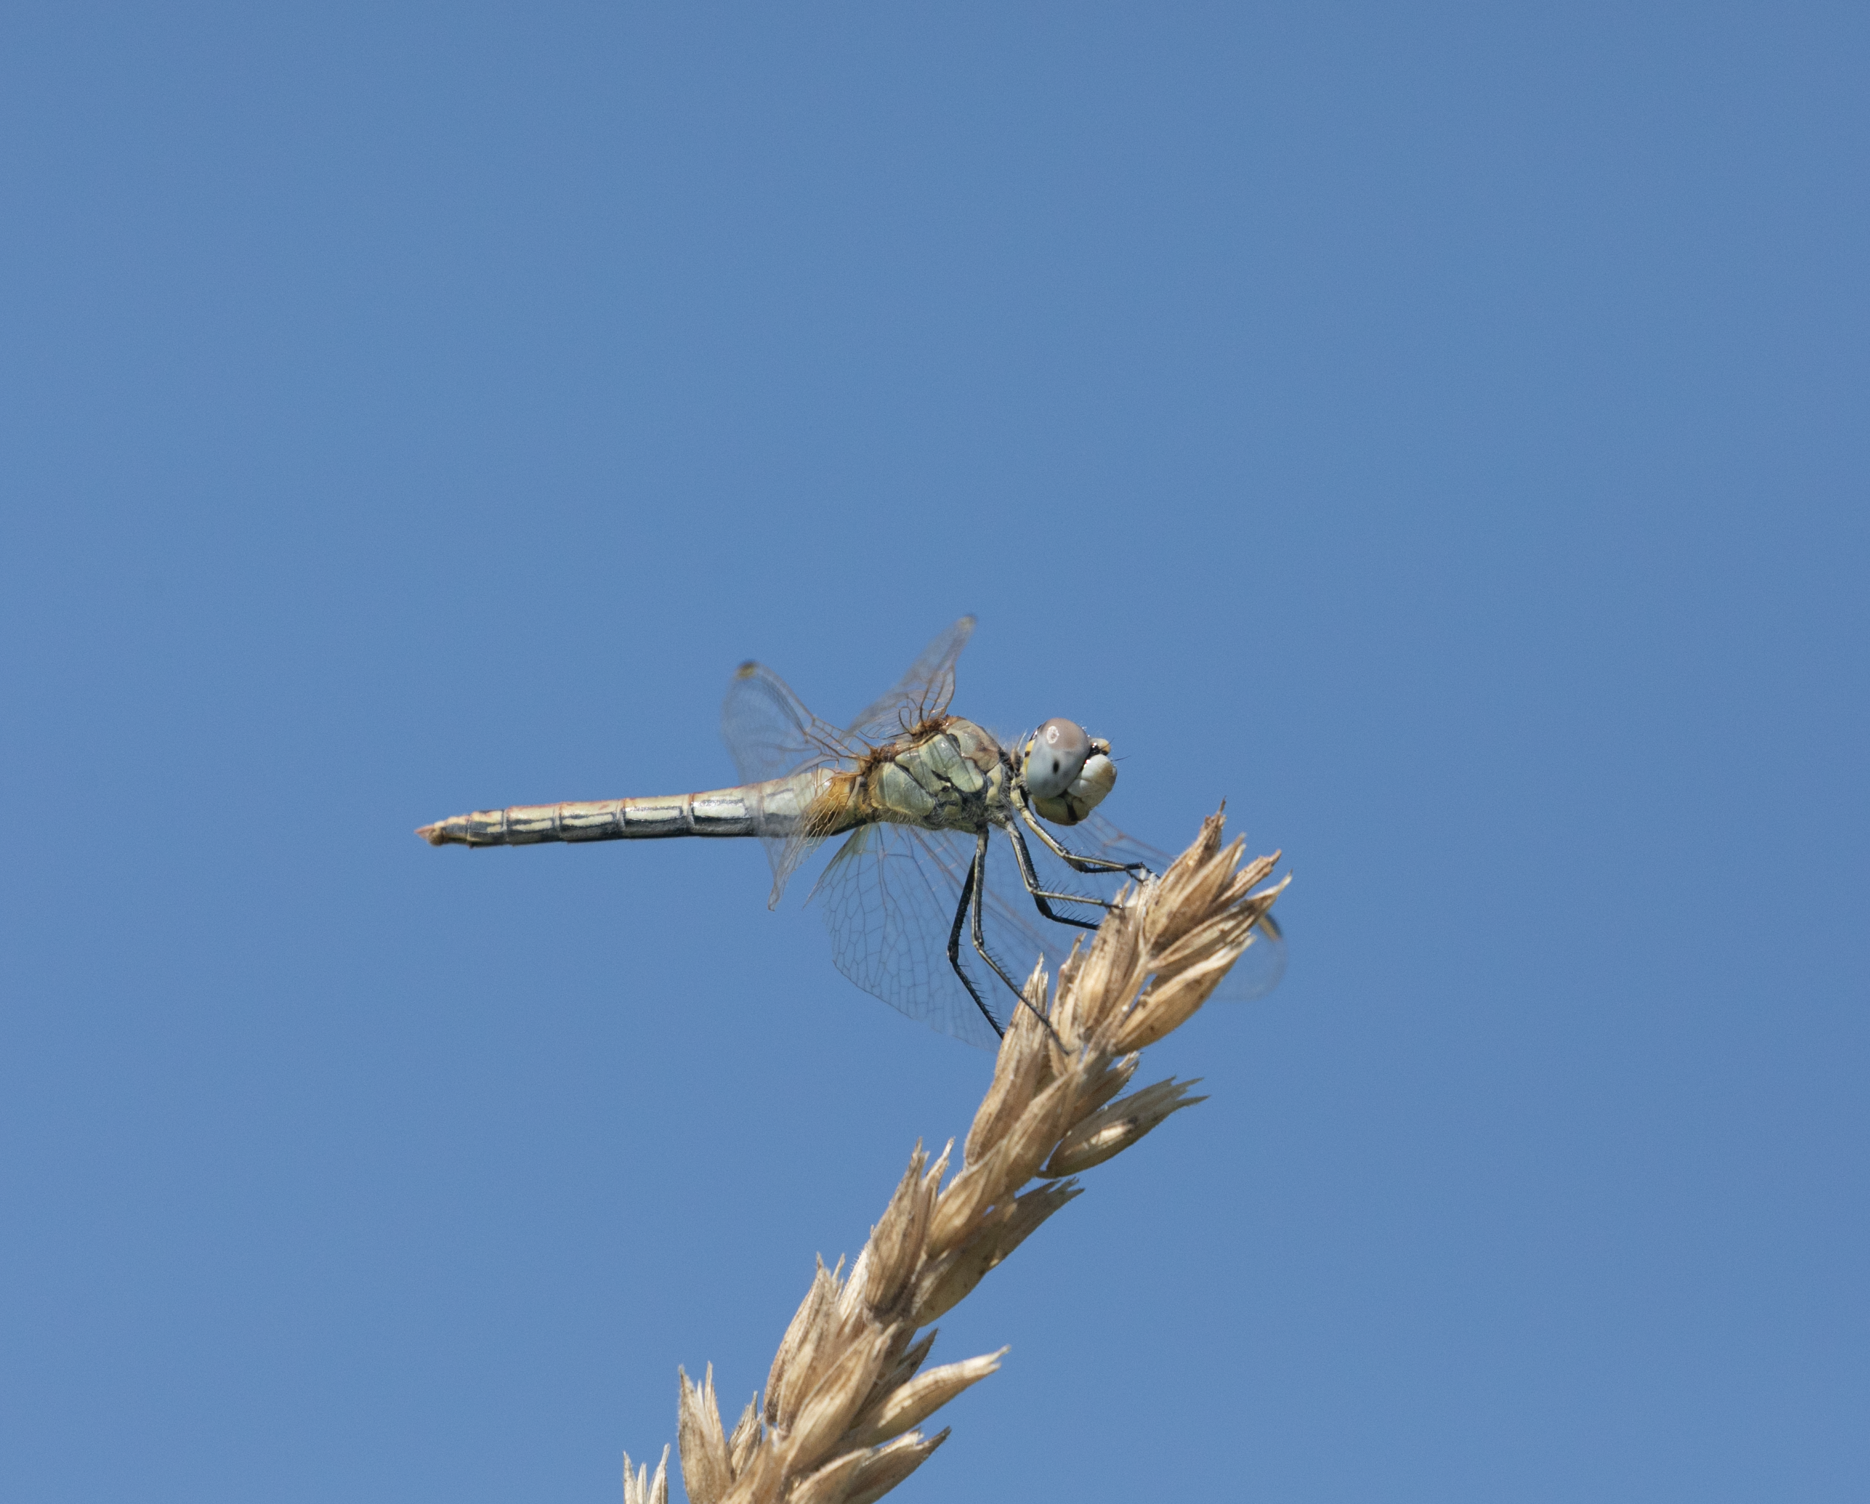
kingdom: Animalia
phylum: Arthropoda
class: Insecta
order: Odonata
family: Libellulidae
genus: Sympetrum
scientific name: Sympetrum fonscolombii
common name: Red-veined darter
